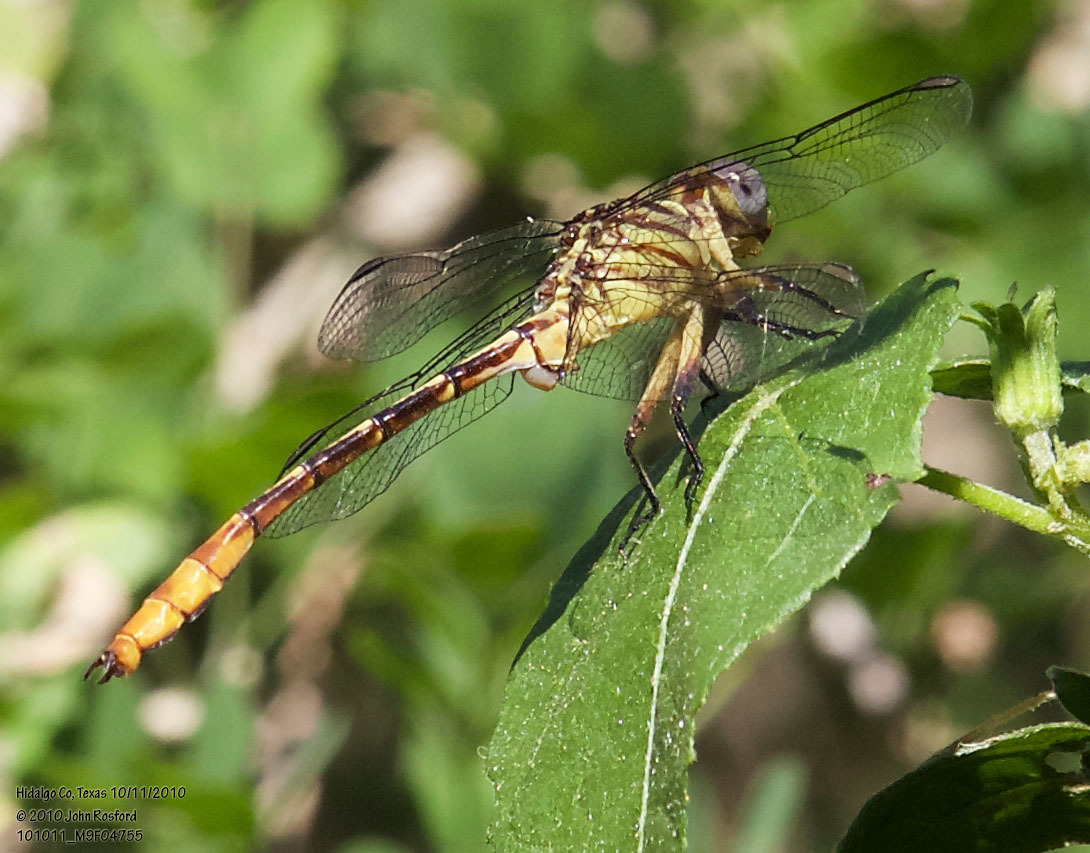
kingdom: Animalia
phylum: Arthropoda
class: Insecta
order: Odonata
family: Gomphidae
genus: Stylurus
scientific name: Stylurus plagiatus
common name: Russet-tipped clubtail
